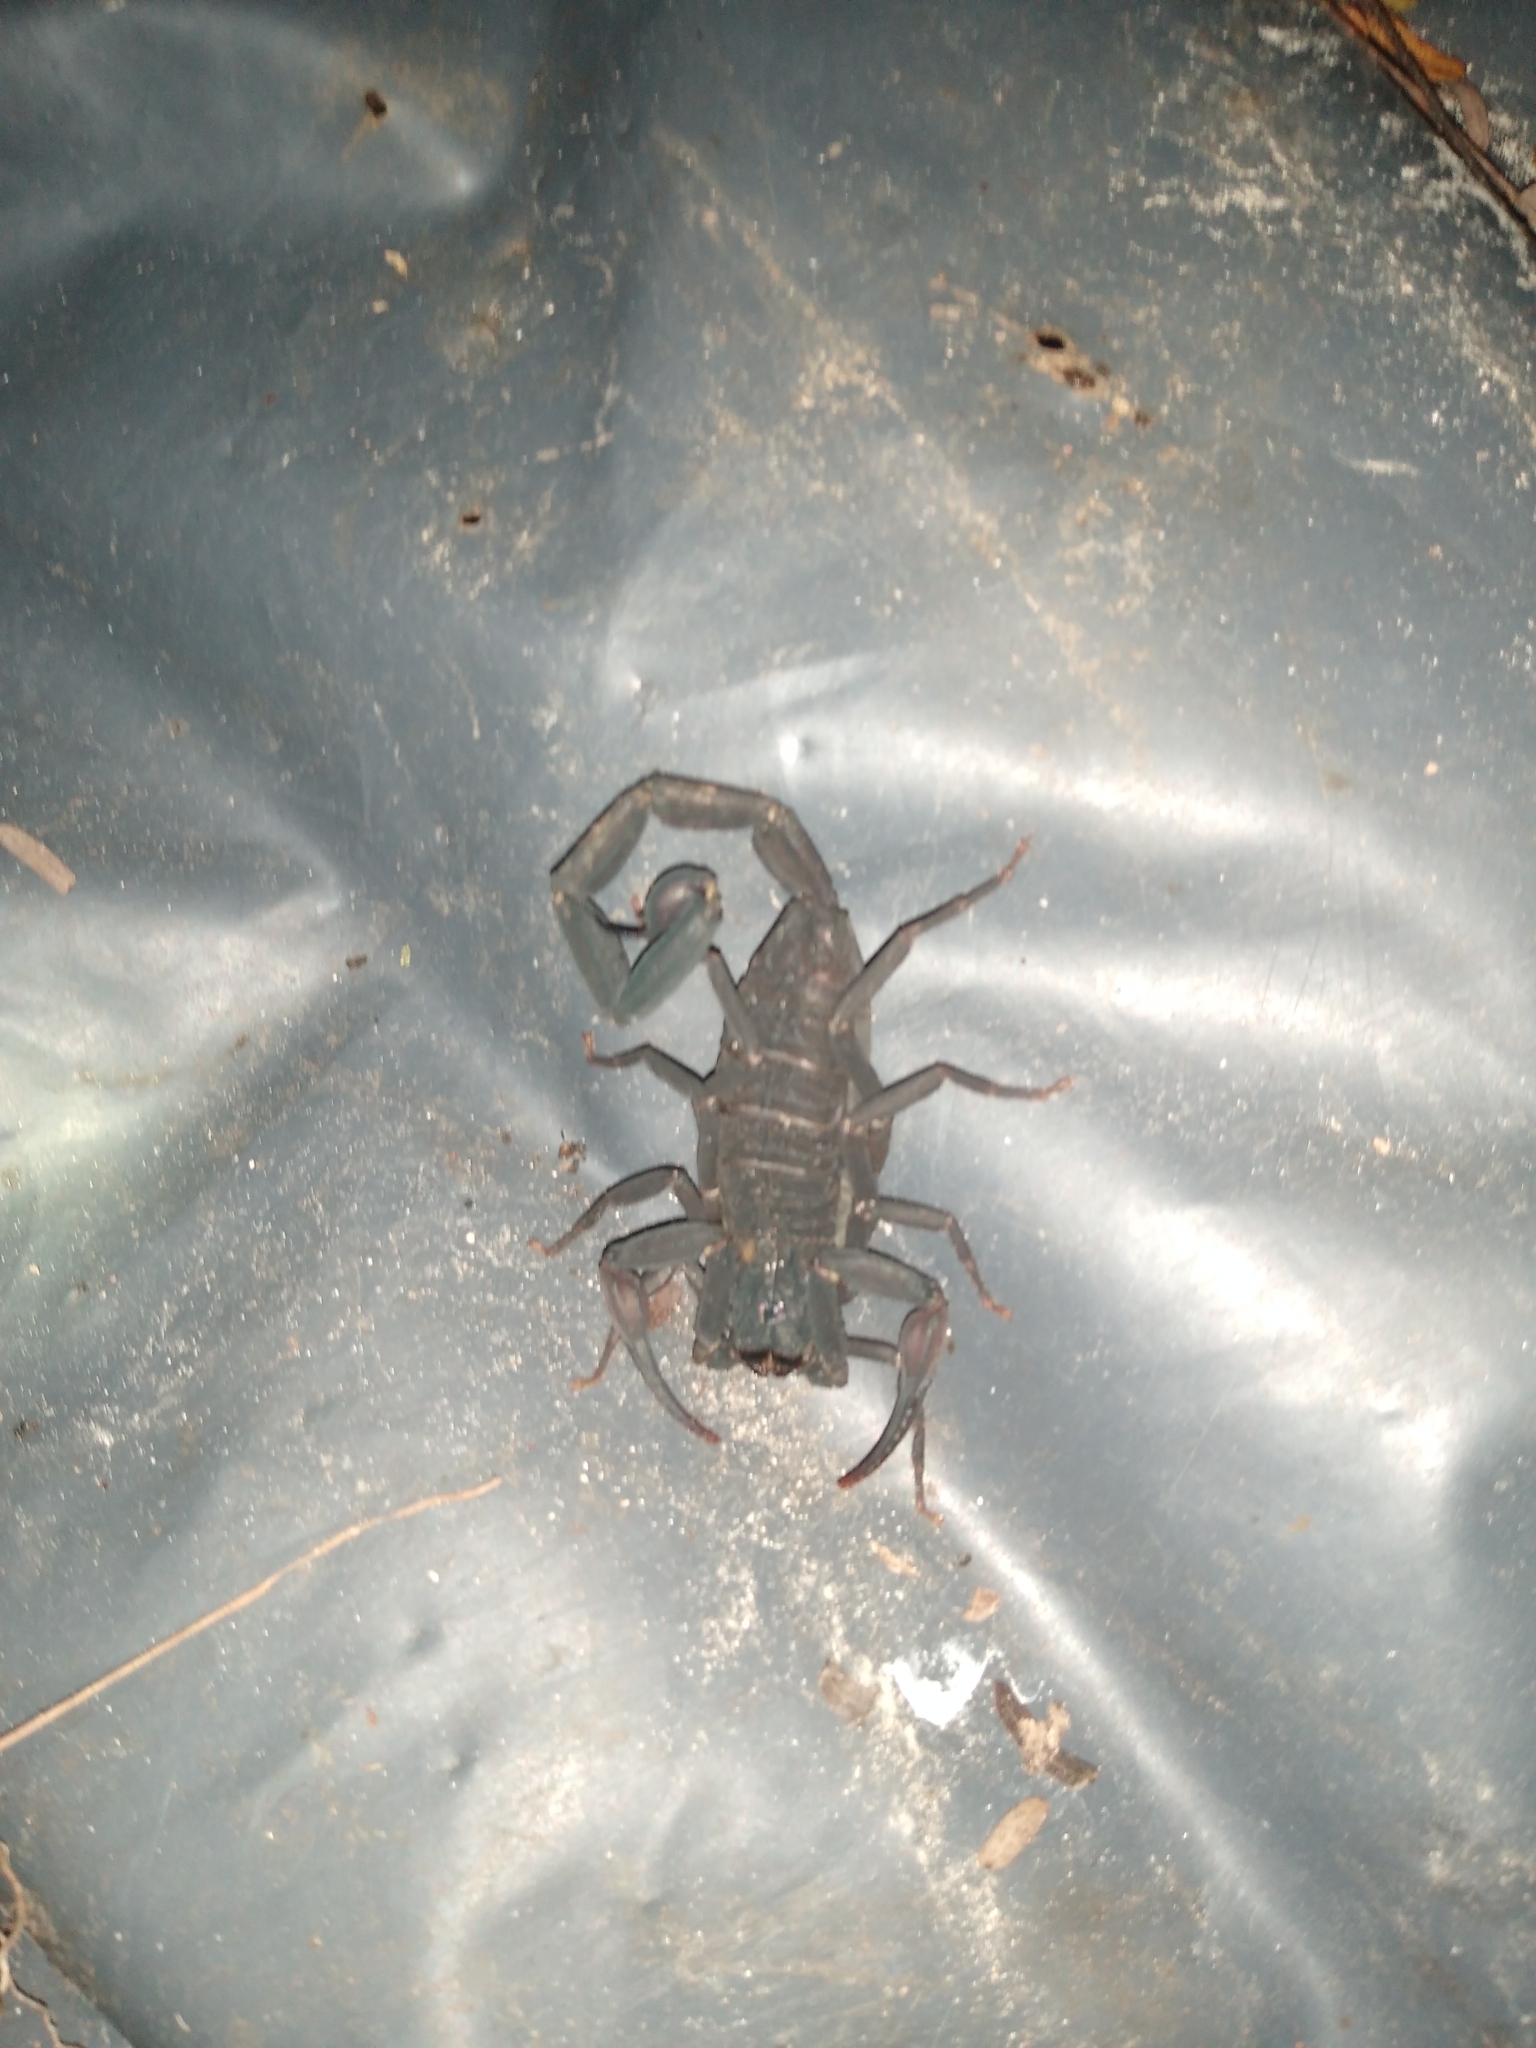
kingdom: Animalia
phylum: Arthropoda
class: Arachnida
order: Scorpiones
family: Buthidae
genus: Centruroides
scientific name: Centruroides gracilis
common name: Scorpions
